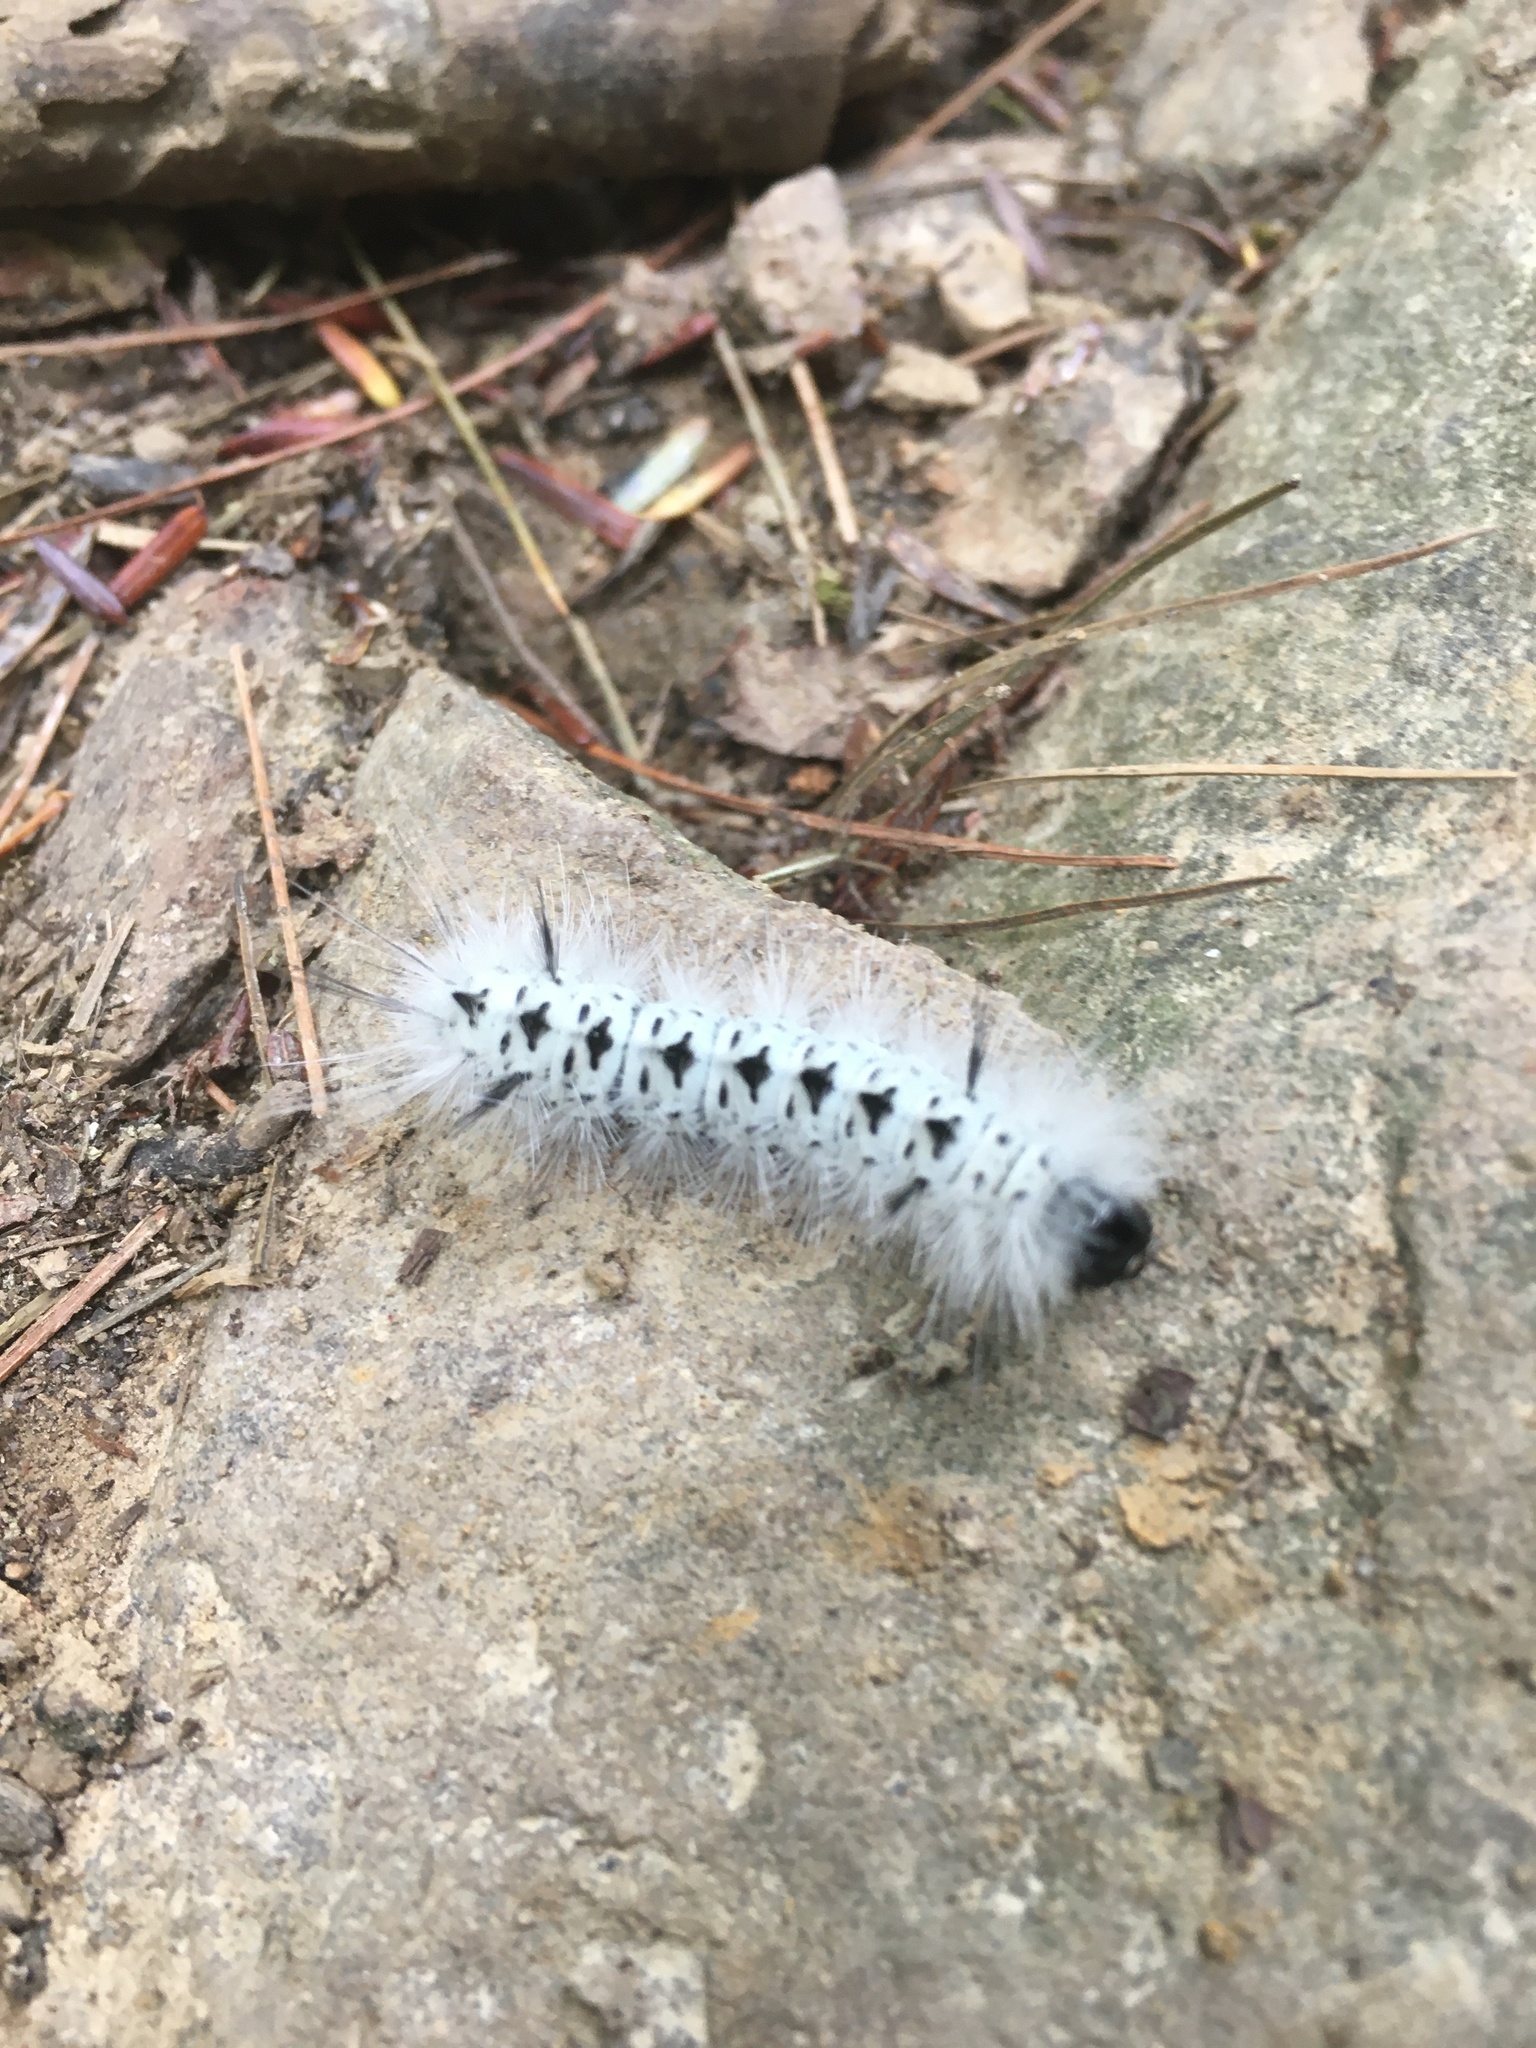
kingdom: Animalia
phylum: Arthropoda
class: Insecta
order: Lepidoptera
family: Erebidae
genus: Lophocampa
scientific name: Lophocampa caryae
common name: Hickory tussock moth
